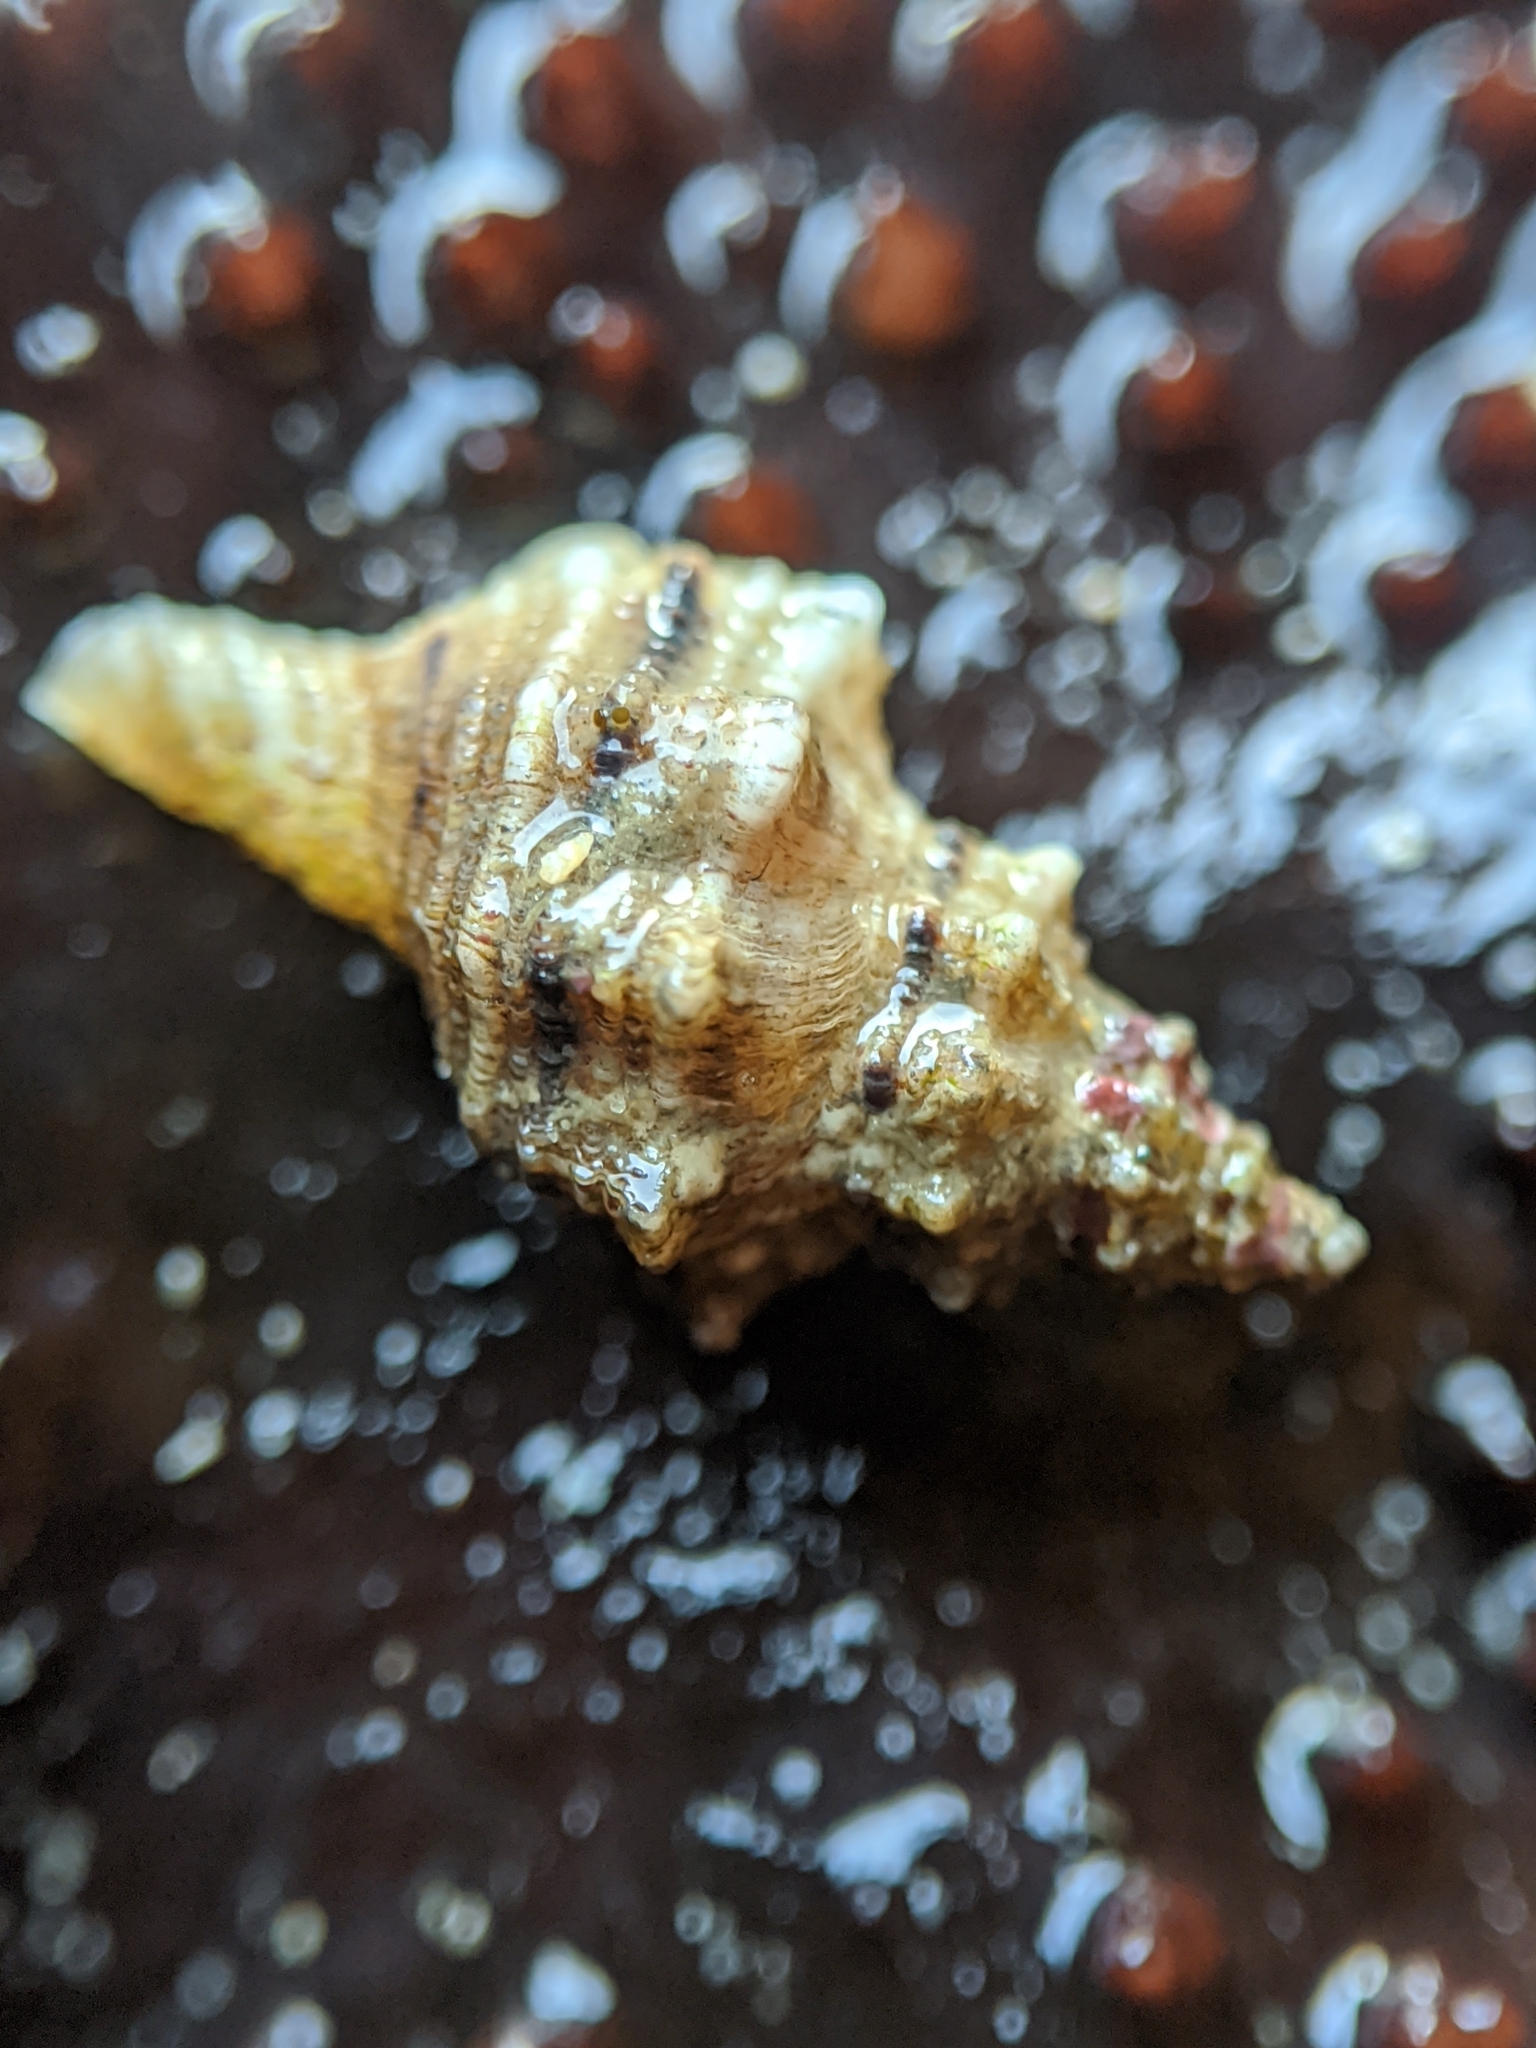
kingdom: Animalia
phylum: Mollusca
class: Gastropoda
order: Neogastropoda
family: Muricidae
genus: Urosalpinx
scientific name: Urosalpinx subangulata
